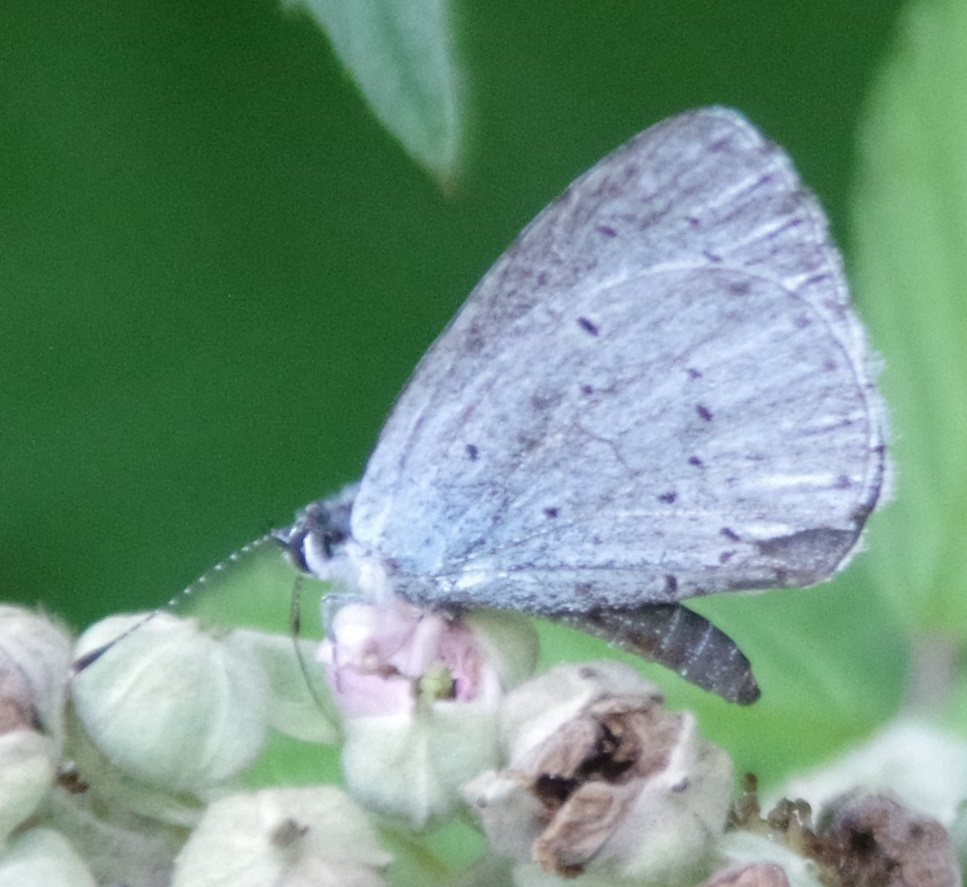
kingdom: Animalia
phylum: Arthropoda
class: Insecta
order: Lepidoptera
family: Lycaenidae
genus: Celastrina
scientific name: Celastrina argiolus
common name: Holly blue
